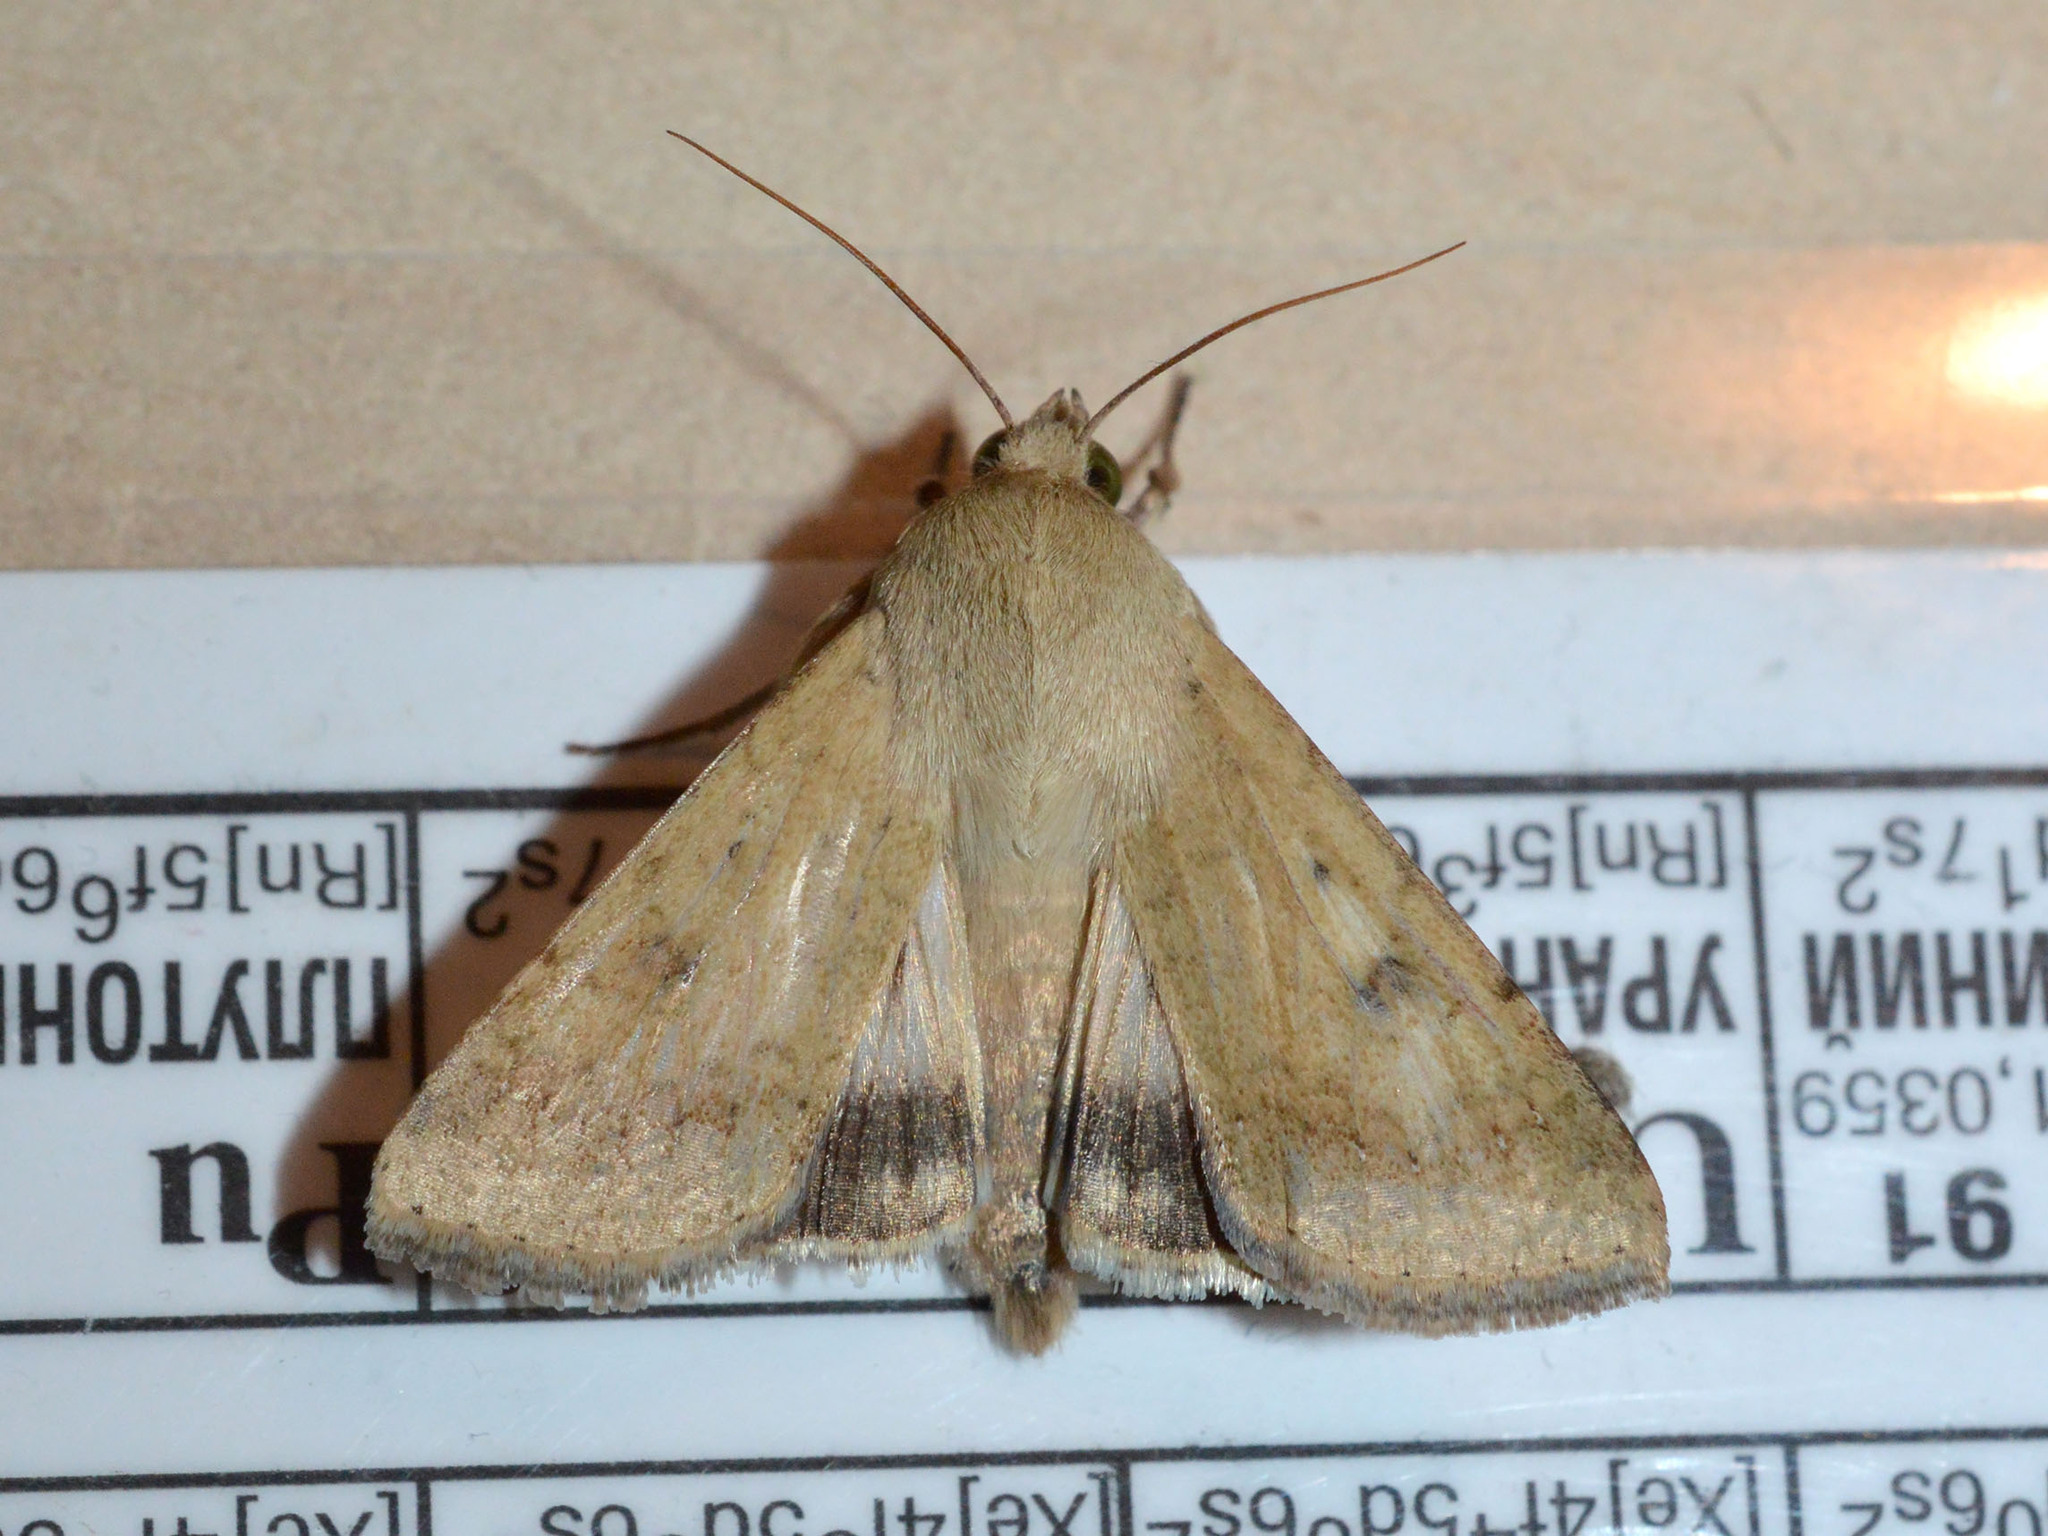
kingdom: Animalia
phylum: Arthropoda
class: Insecta
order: Lepidoptera
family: Noctuidae
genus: Helicoverpa
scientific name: Helicoverpa armigera
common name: Cotton bollworm
